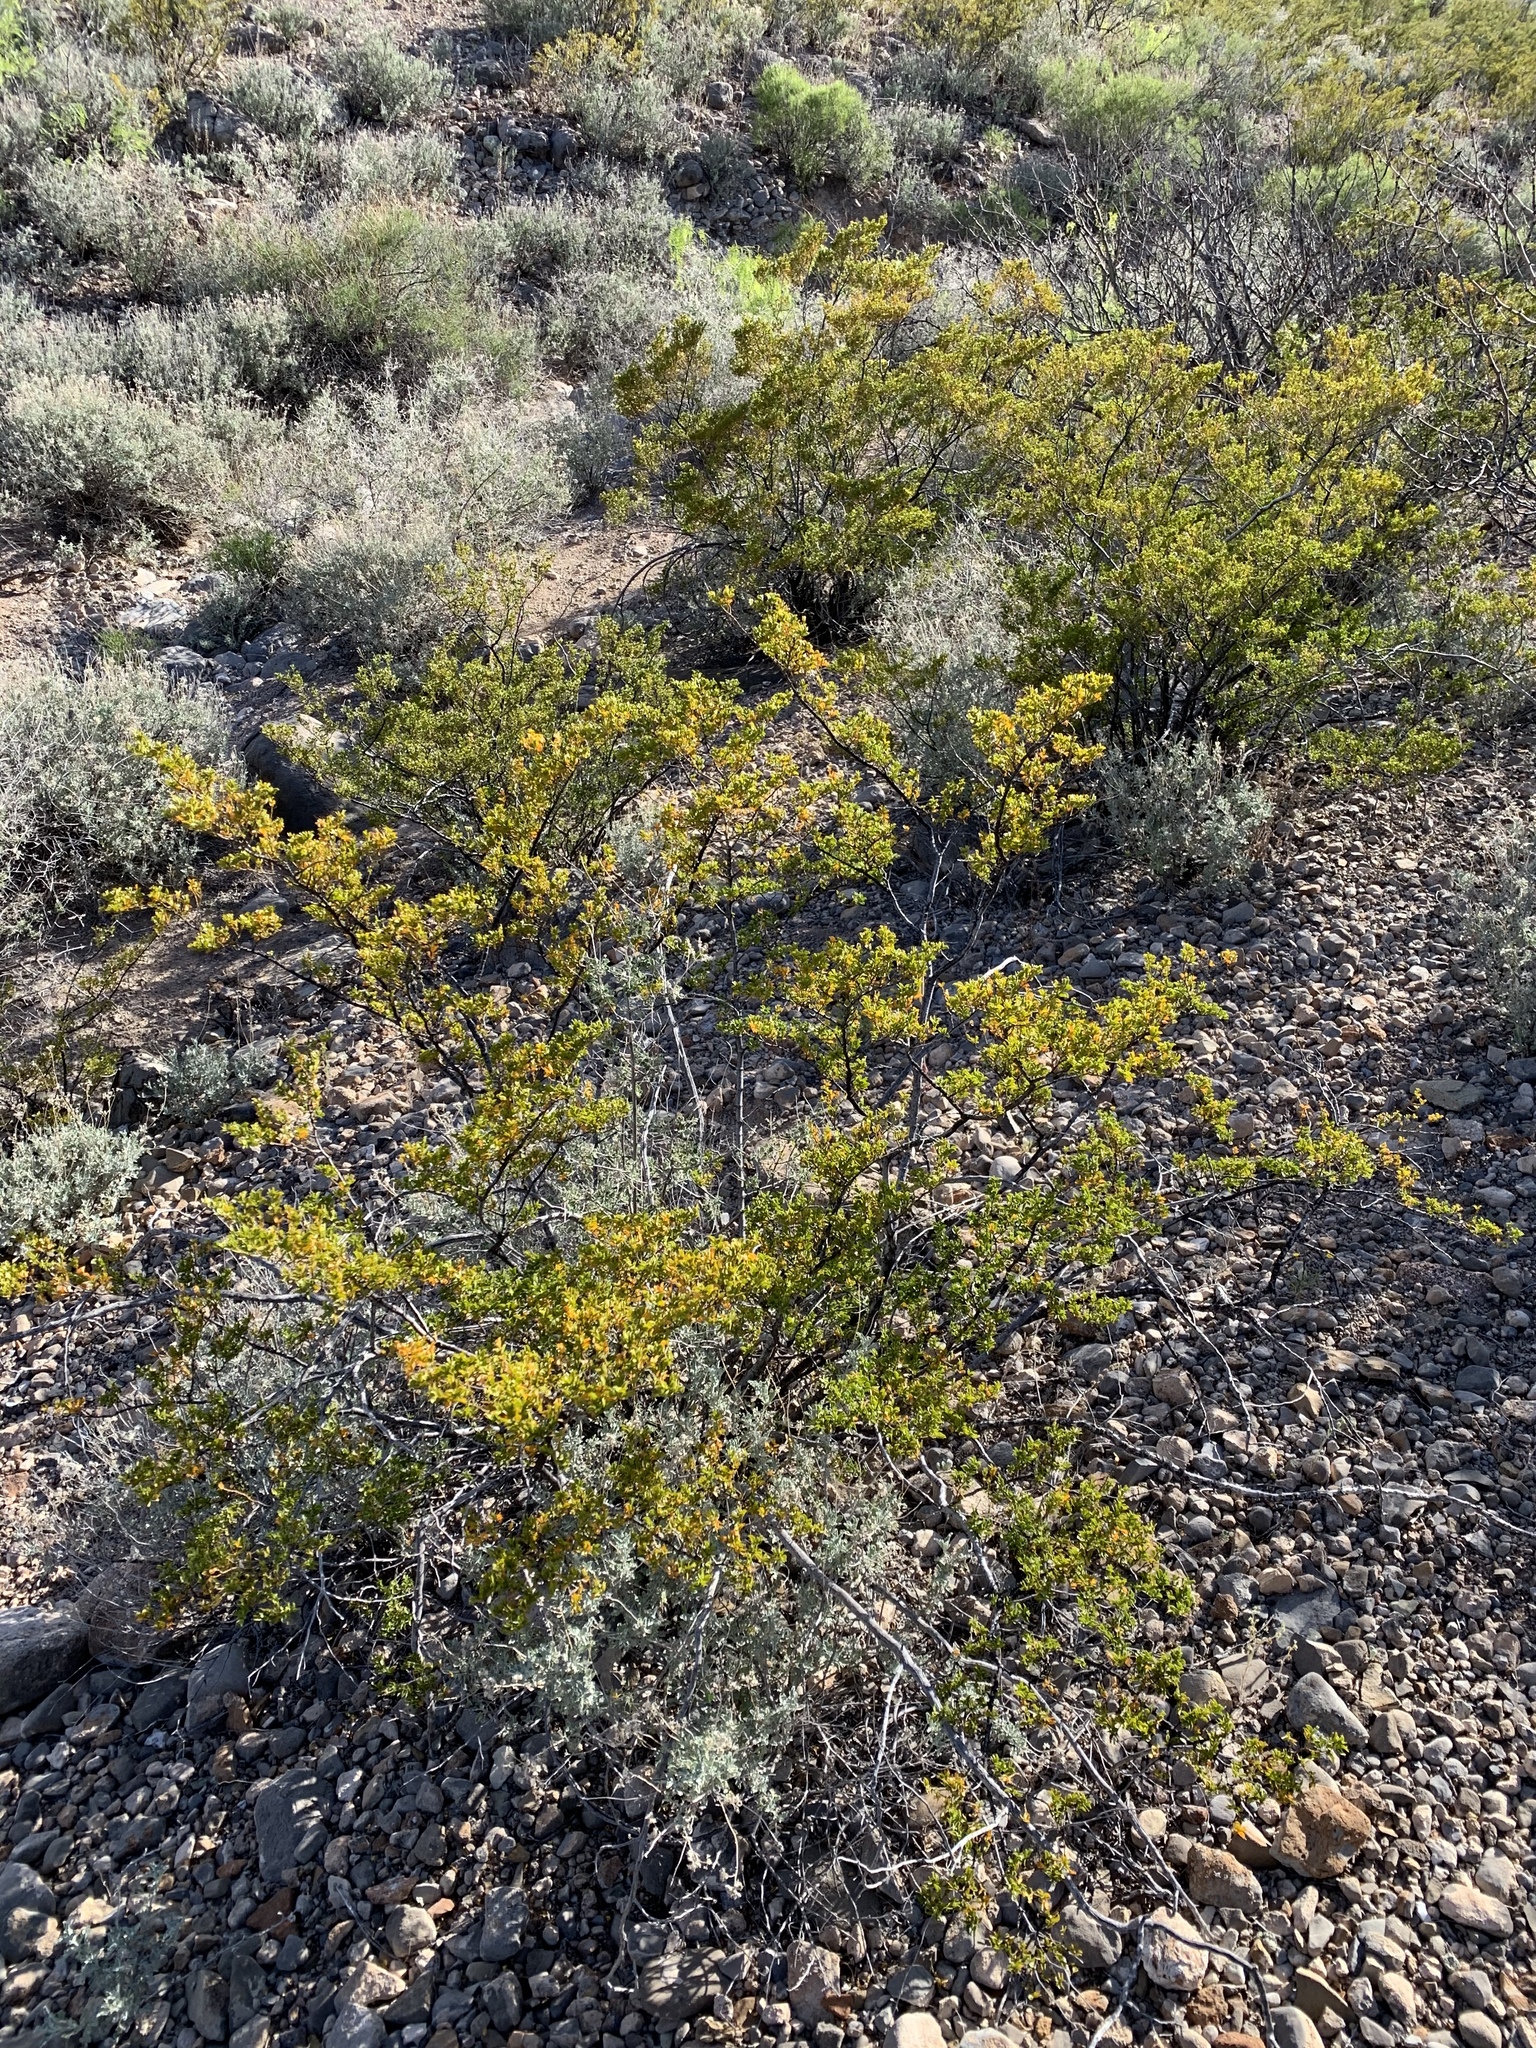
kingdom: Plantae
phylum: Tracheophyta
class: Magnoliopsida
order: Zygophyllales
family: Zygophyllaceae
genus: Larrea
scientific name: Larrea tridentata
